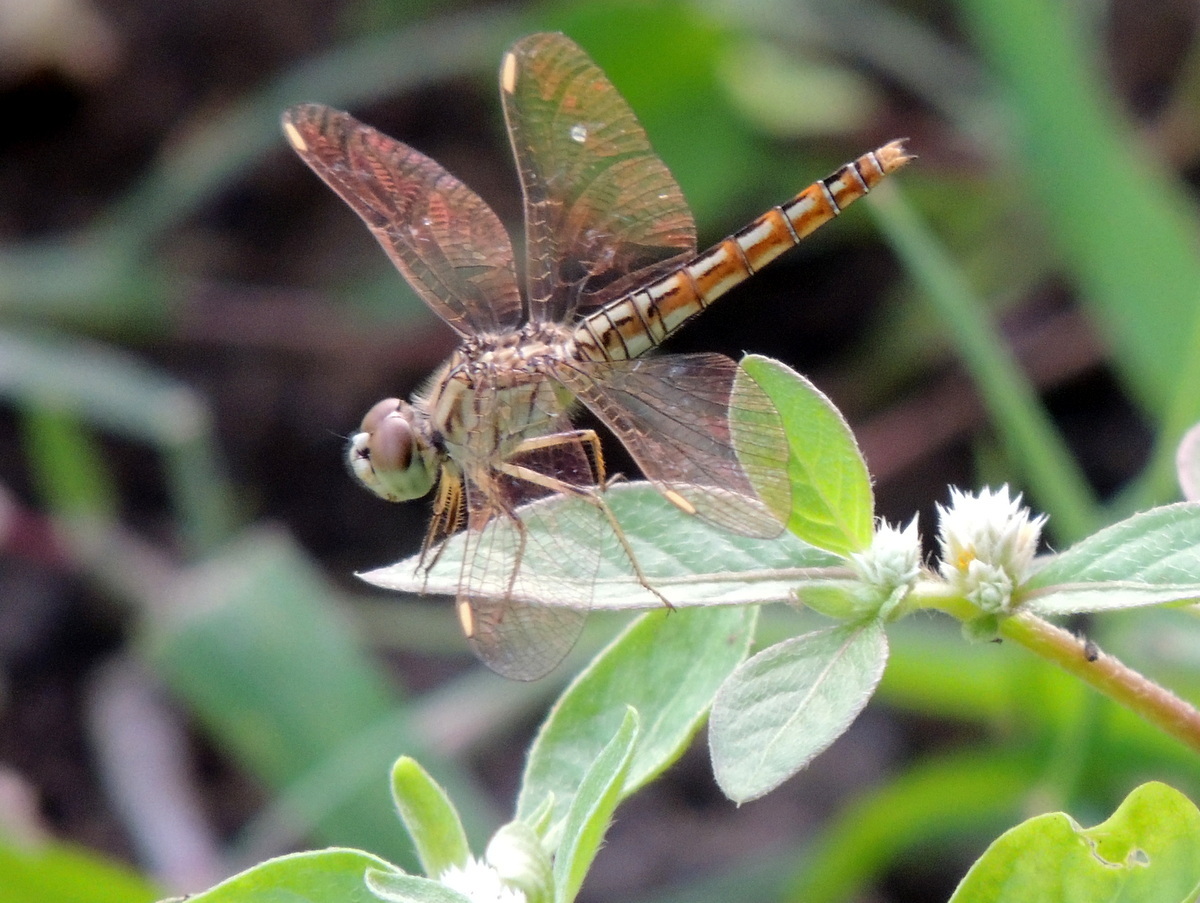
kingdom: Animalia
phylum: Arthropoda
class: Insecta
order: Odonata
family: Libellulidae
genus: Brachythemis
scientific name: Brachythemis contaminata
